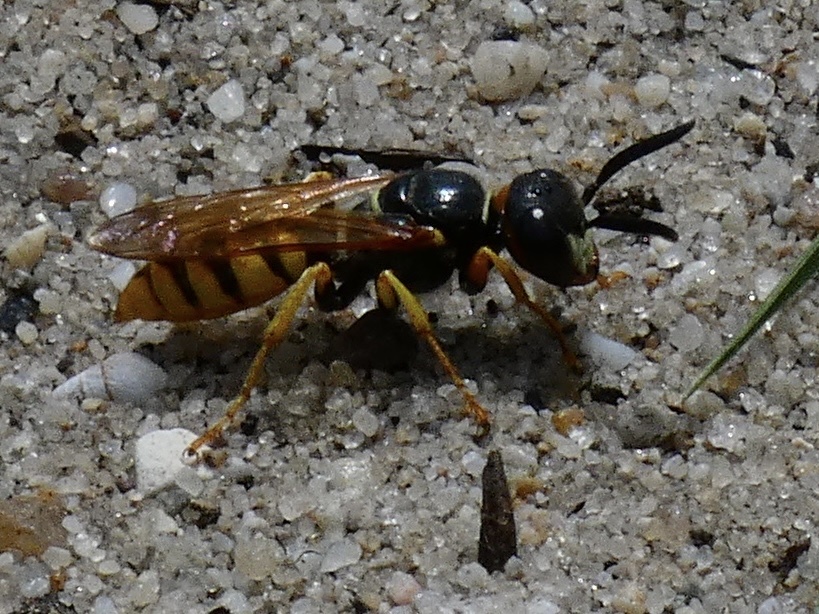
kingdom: Animalia
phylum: Arthropoda
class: Insecta
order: Hymenoptera
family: Crabronidae
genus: Philanthus
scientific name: Philanthus triangulum
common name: Bee wolf
